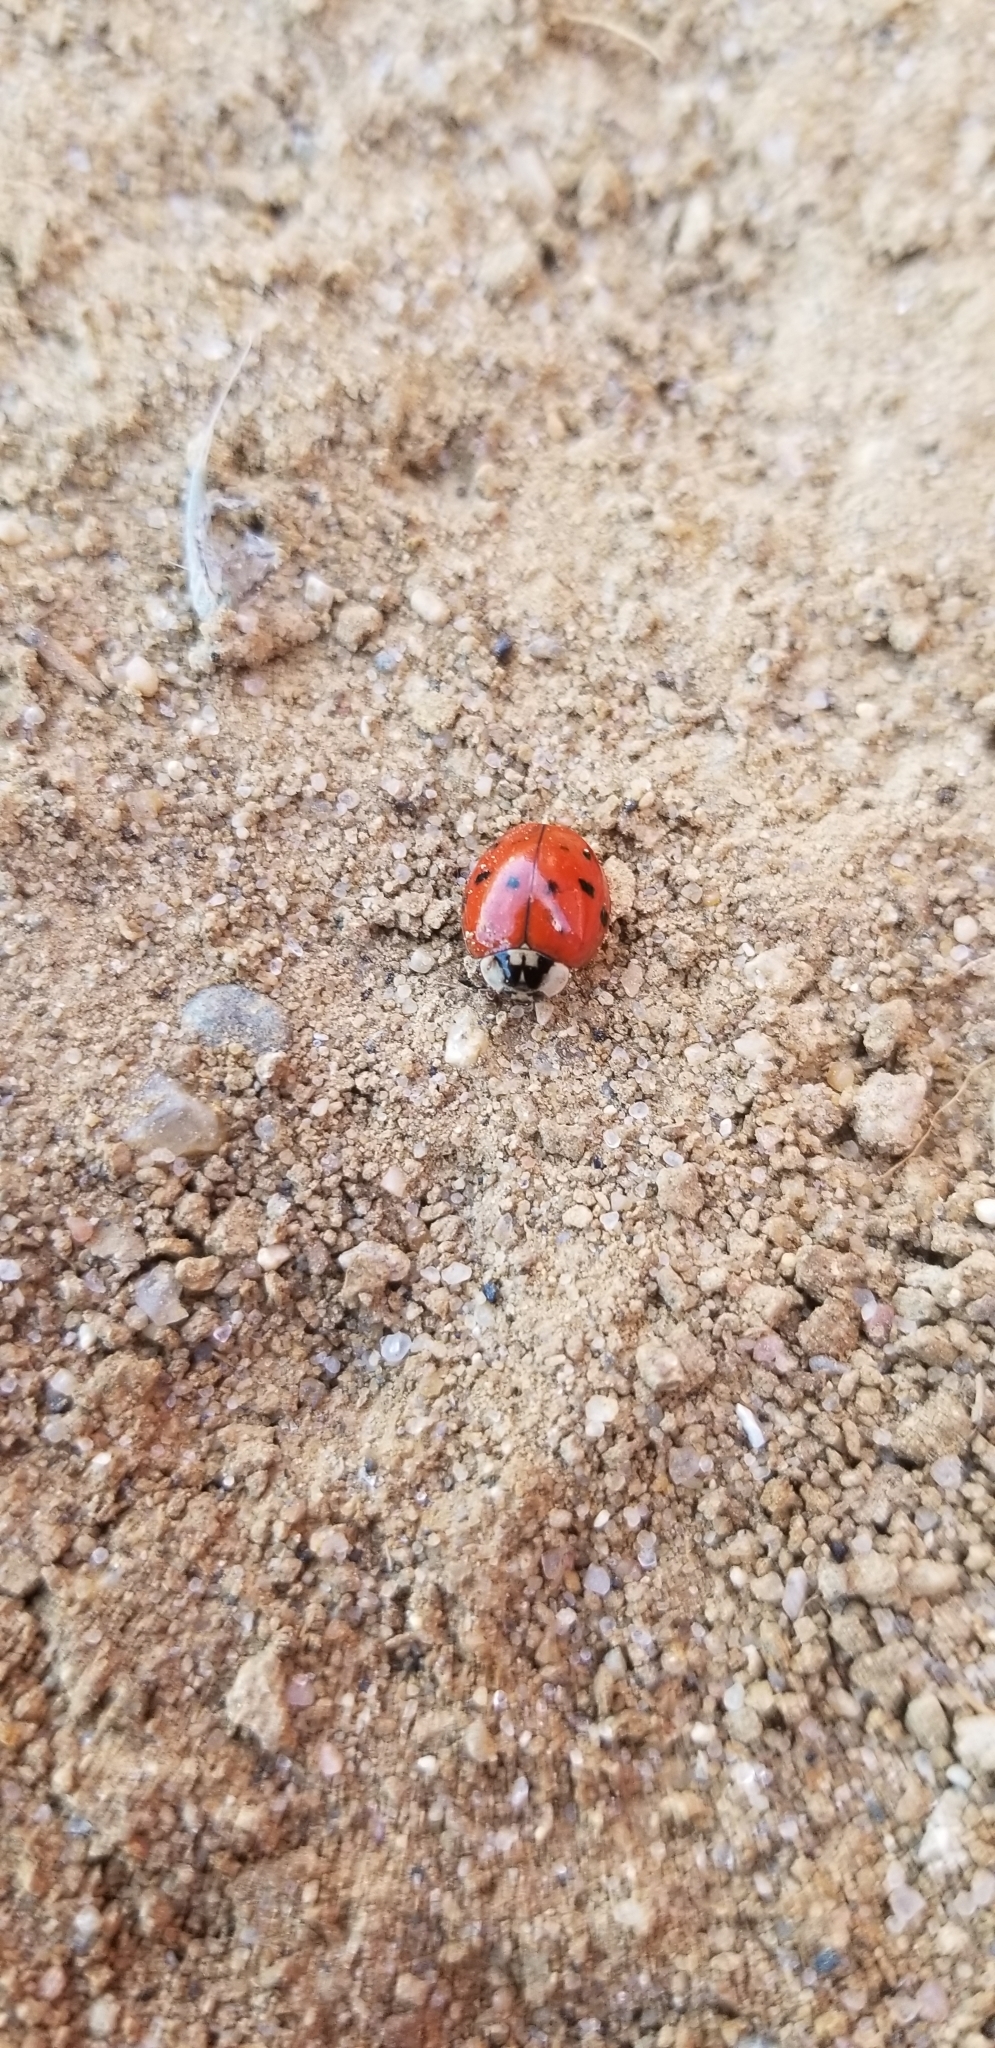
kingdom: Animalia
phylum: Arthropoda
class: Insecta
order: Coleoptera
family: Coccinellidae
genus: Harmonia
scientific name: Harmonia axyridis
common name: Harlequin ladybird
